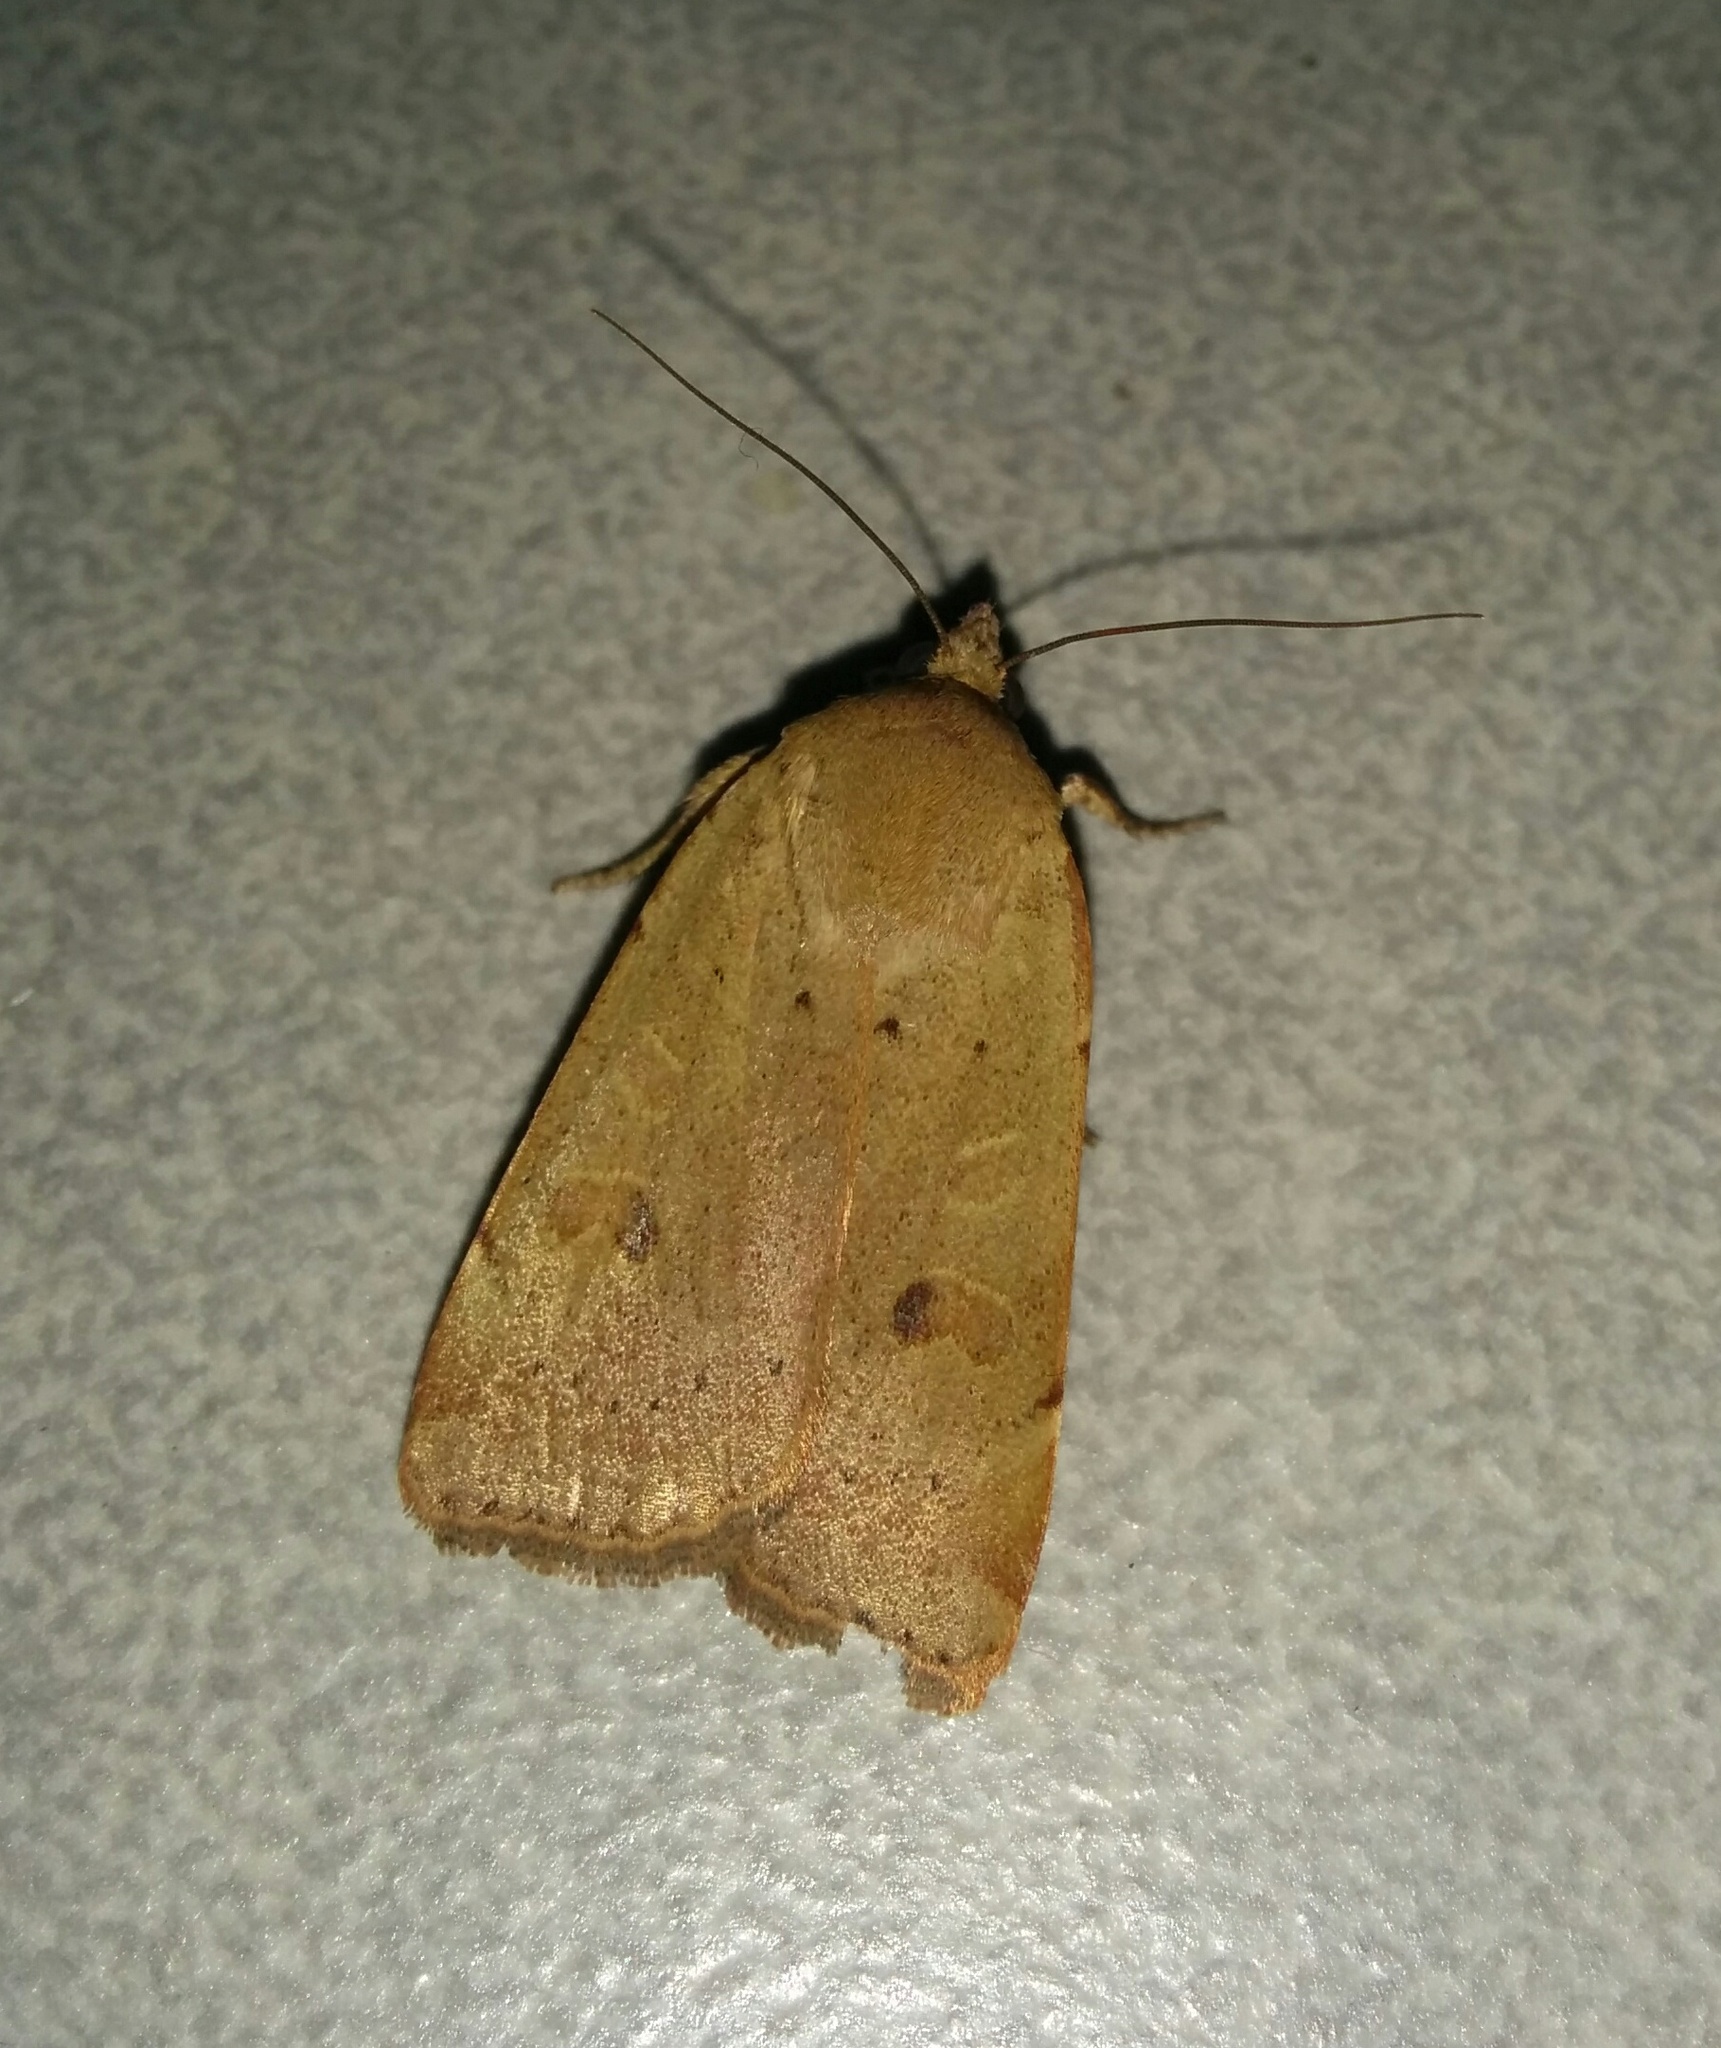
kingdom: Animalia
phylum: Arthropoda
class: Insecta
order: Lepidoptera
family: Noctuidae
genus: Noctua
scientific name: Noctua comes
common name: Lesser yellow underwing
